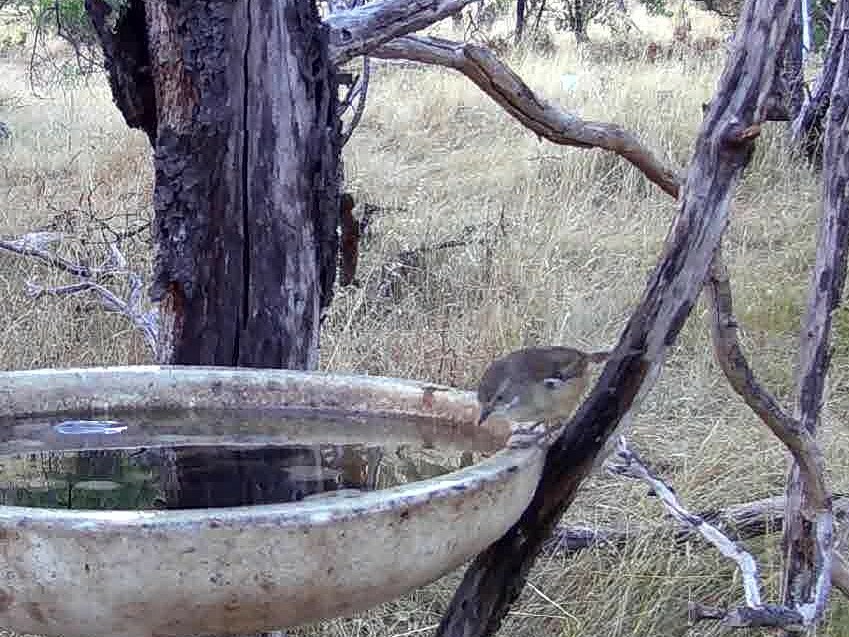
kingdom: Animalia
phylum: Chordata
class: Aves
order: Passeriformes
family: Acanthizidae
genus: Sericornis
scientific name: Sericornis frontalis
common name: White-browed scrubwren
